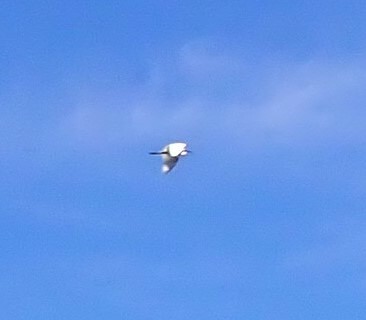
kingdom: Animalia
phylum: Chordata
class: Aves
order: Pelecaniformes
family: Ardeidae
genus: Ardea
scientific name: Ardea alba
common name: Great egret
